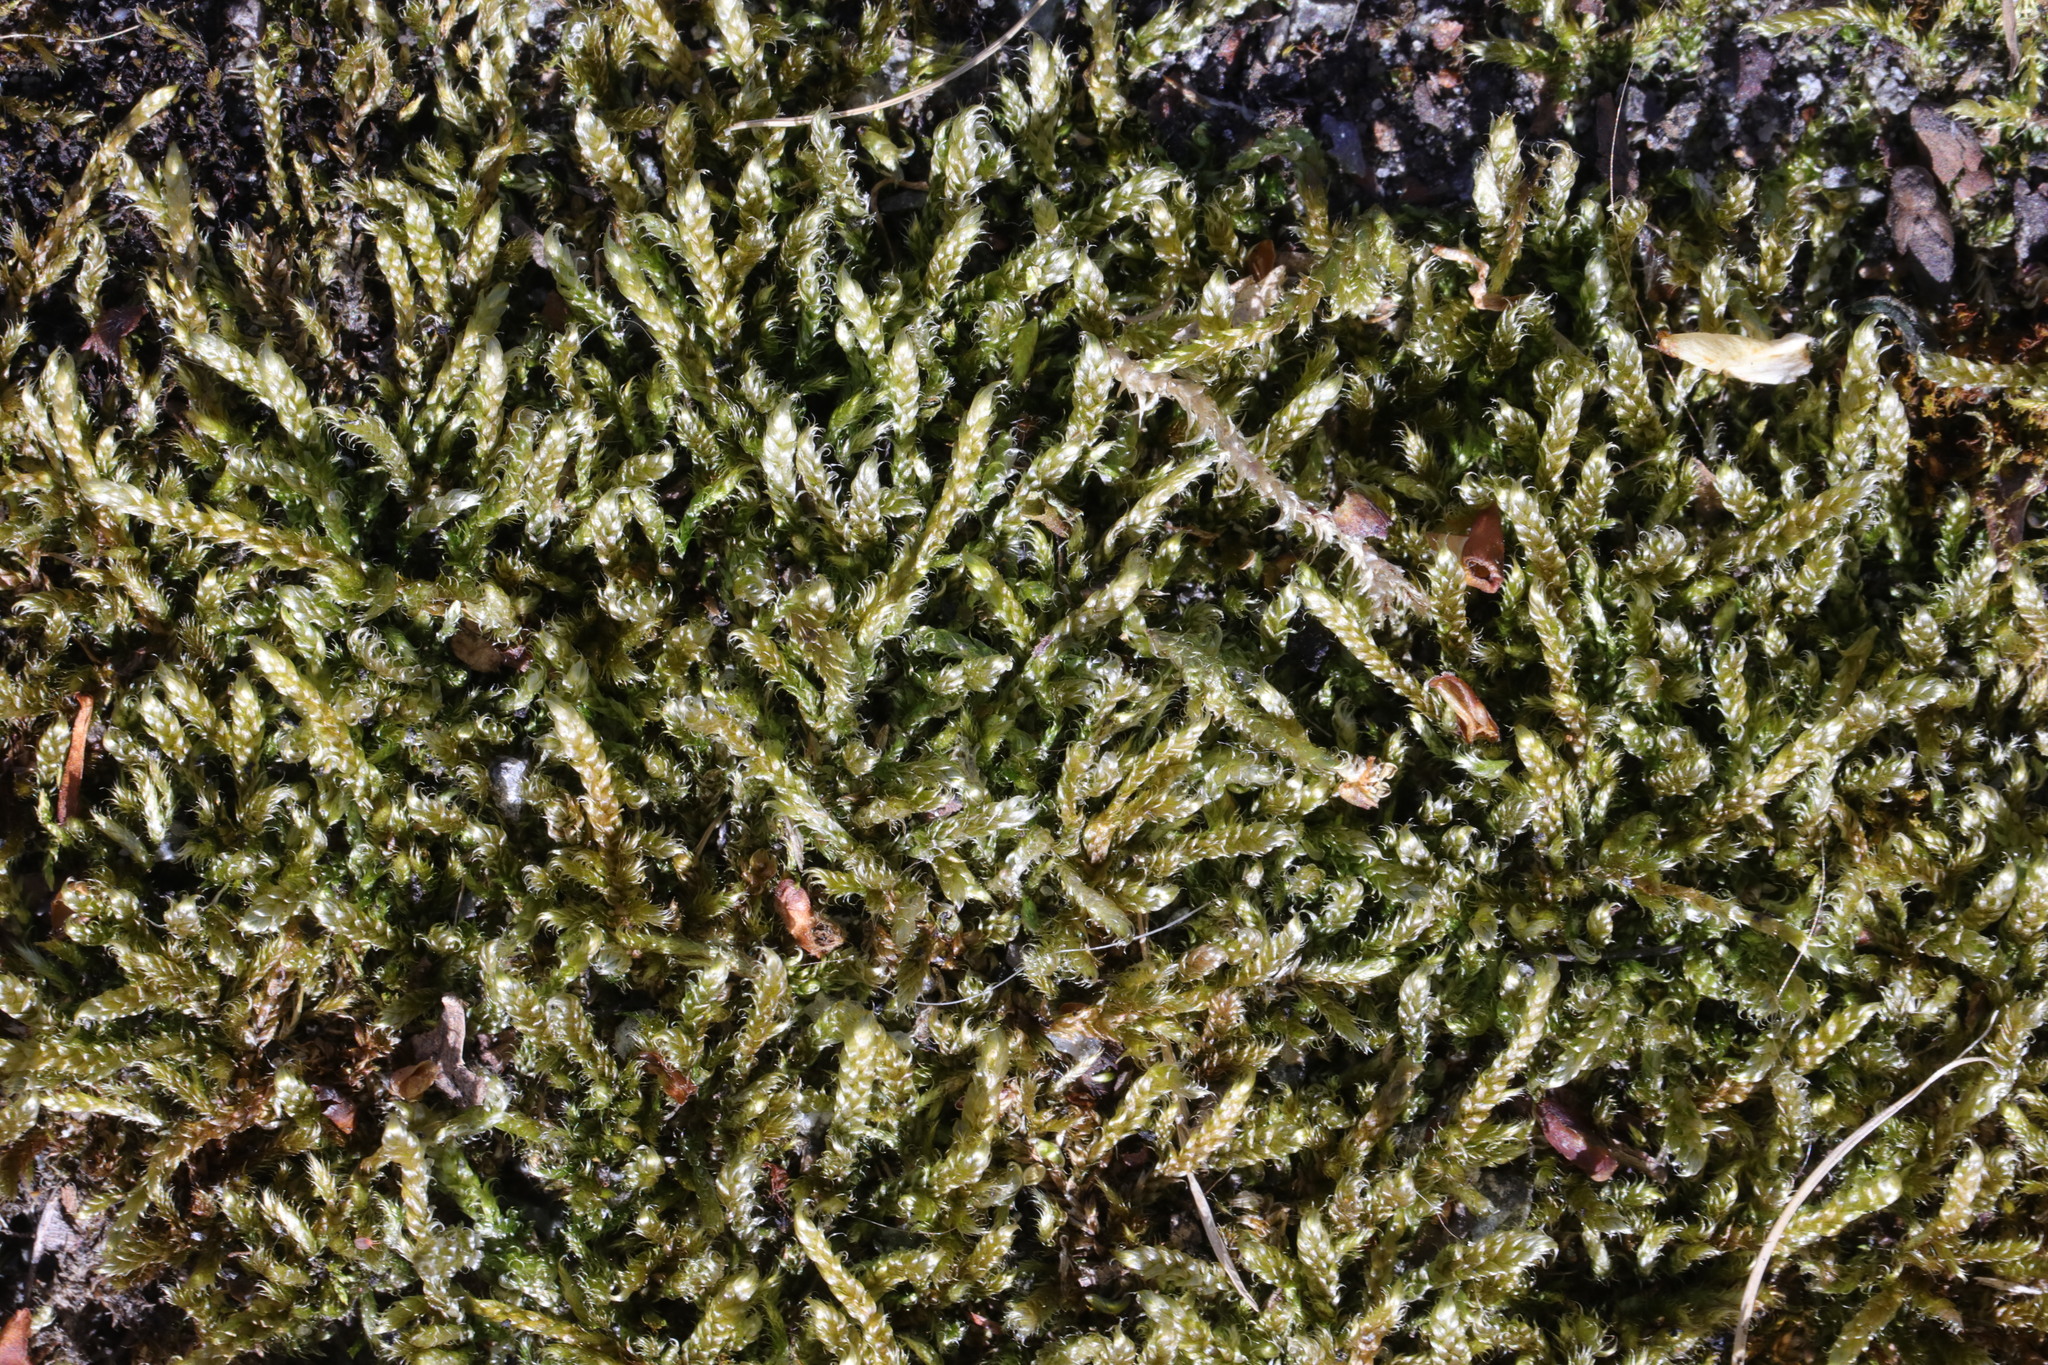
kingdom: Plantae
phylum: Bryophyta
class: Bryopsida
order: Hypnales
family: Hypnaceae
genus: Hypnum
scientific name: Hypnum cupressiforme
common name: Cypress-leaved plait-moss
